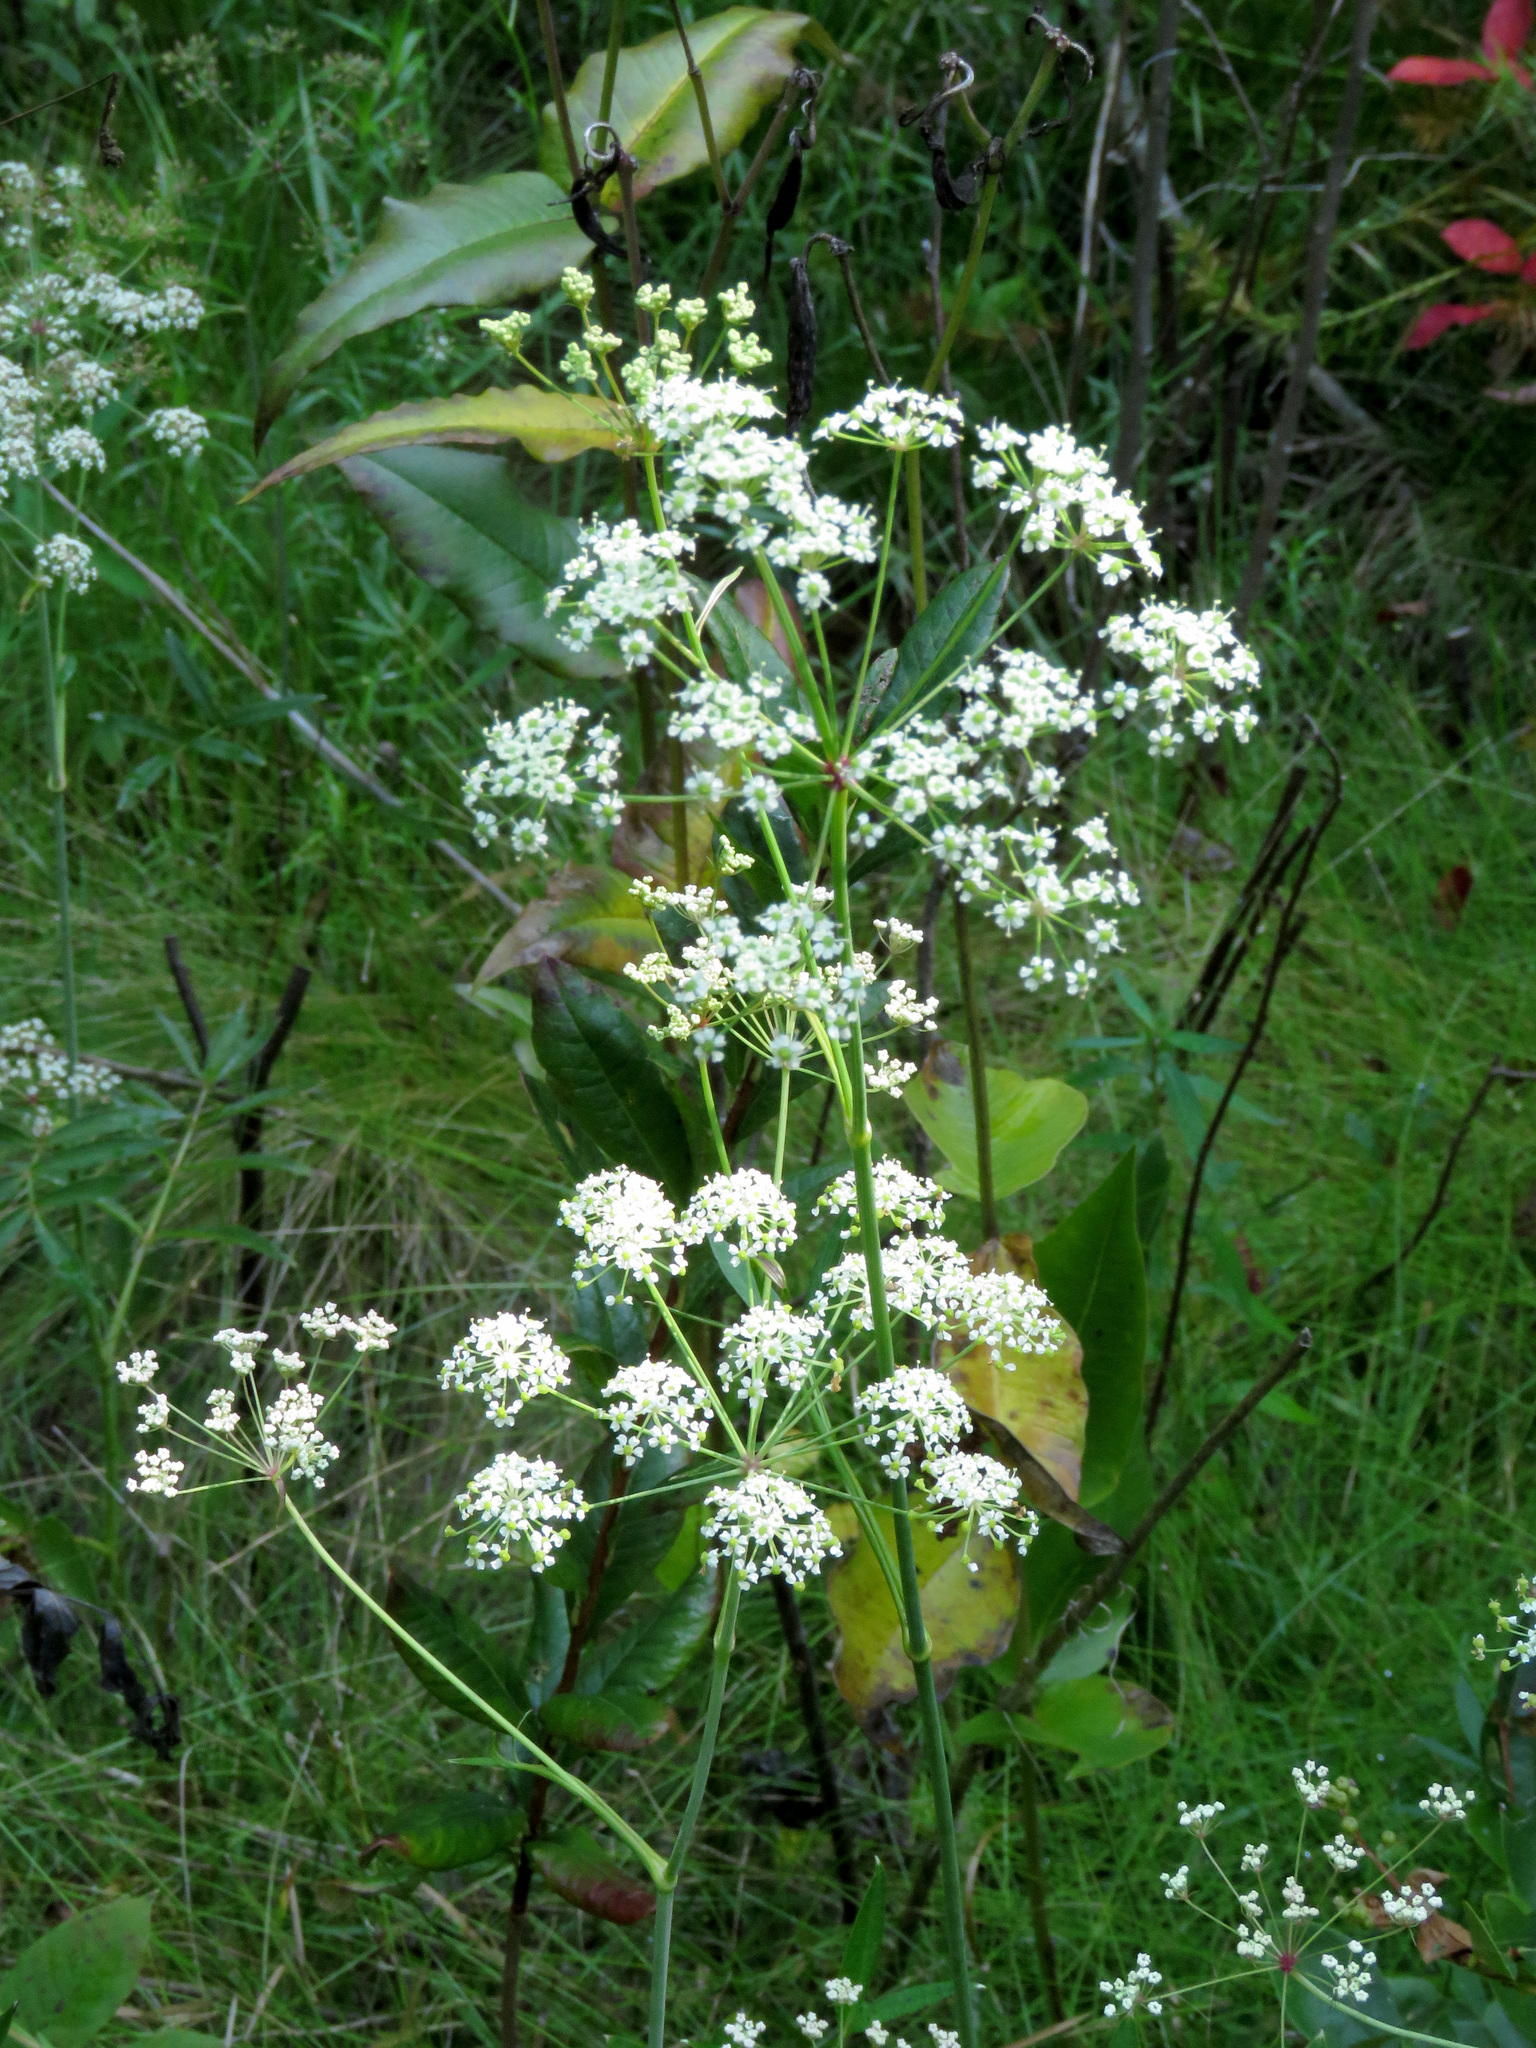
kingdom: Plantae
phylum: Tracheophyta
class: Magnoliopsida
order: Apiales
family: Apiaceae
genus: Oxypolis
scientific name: Oxypolis rigidior
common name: Cowbane
